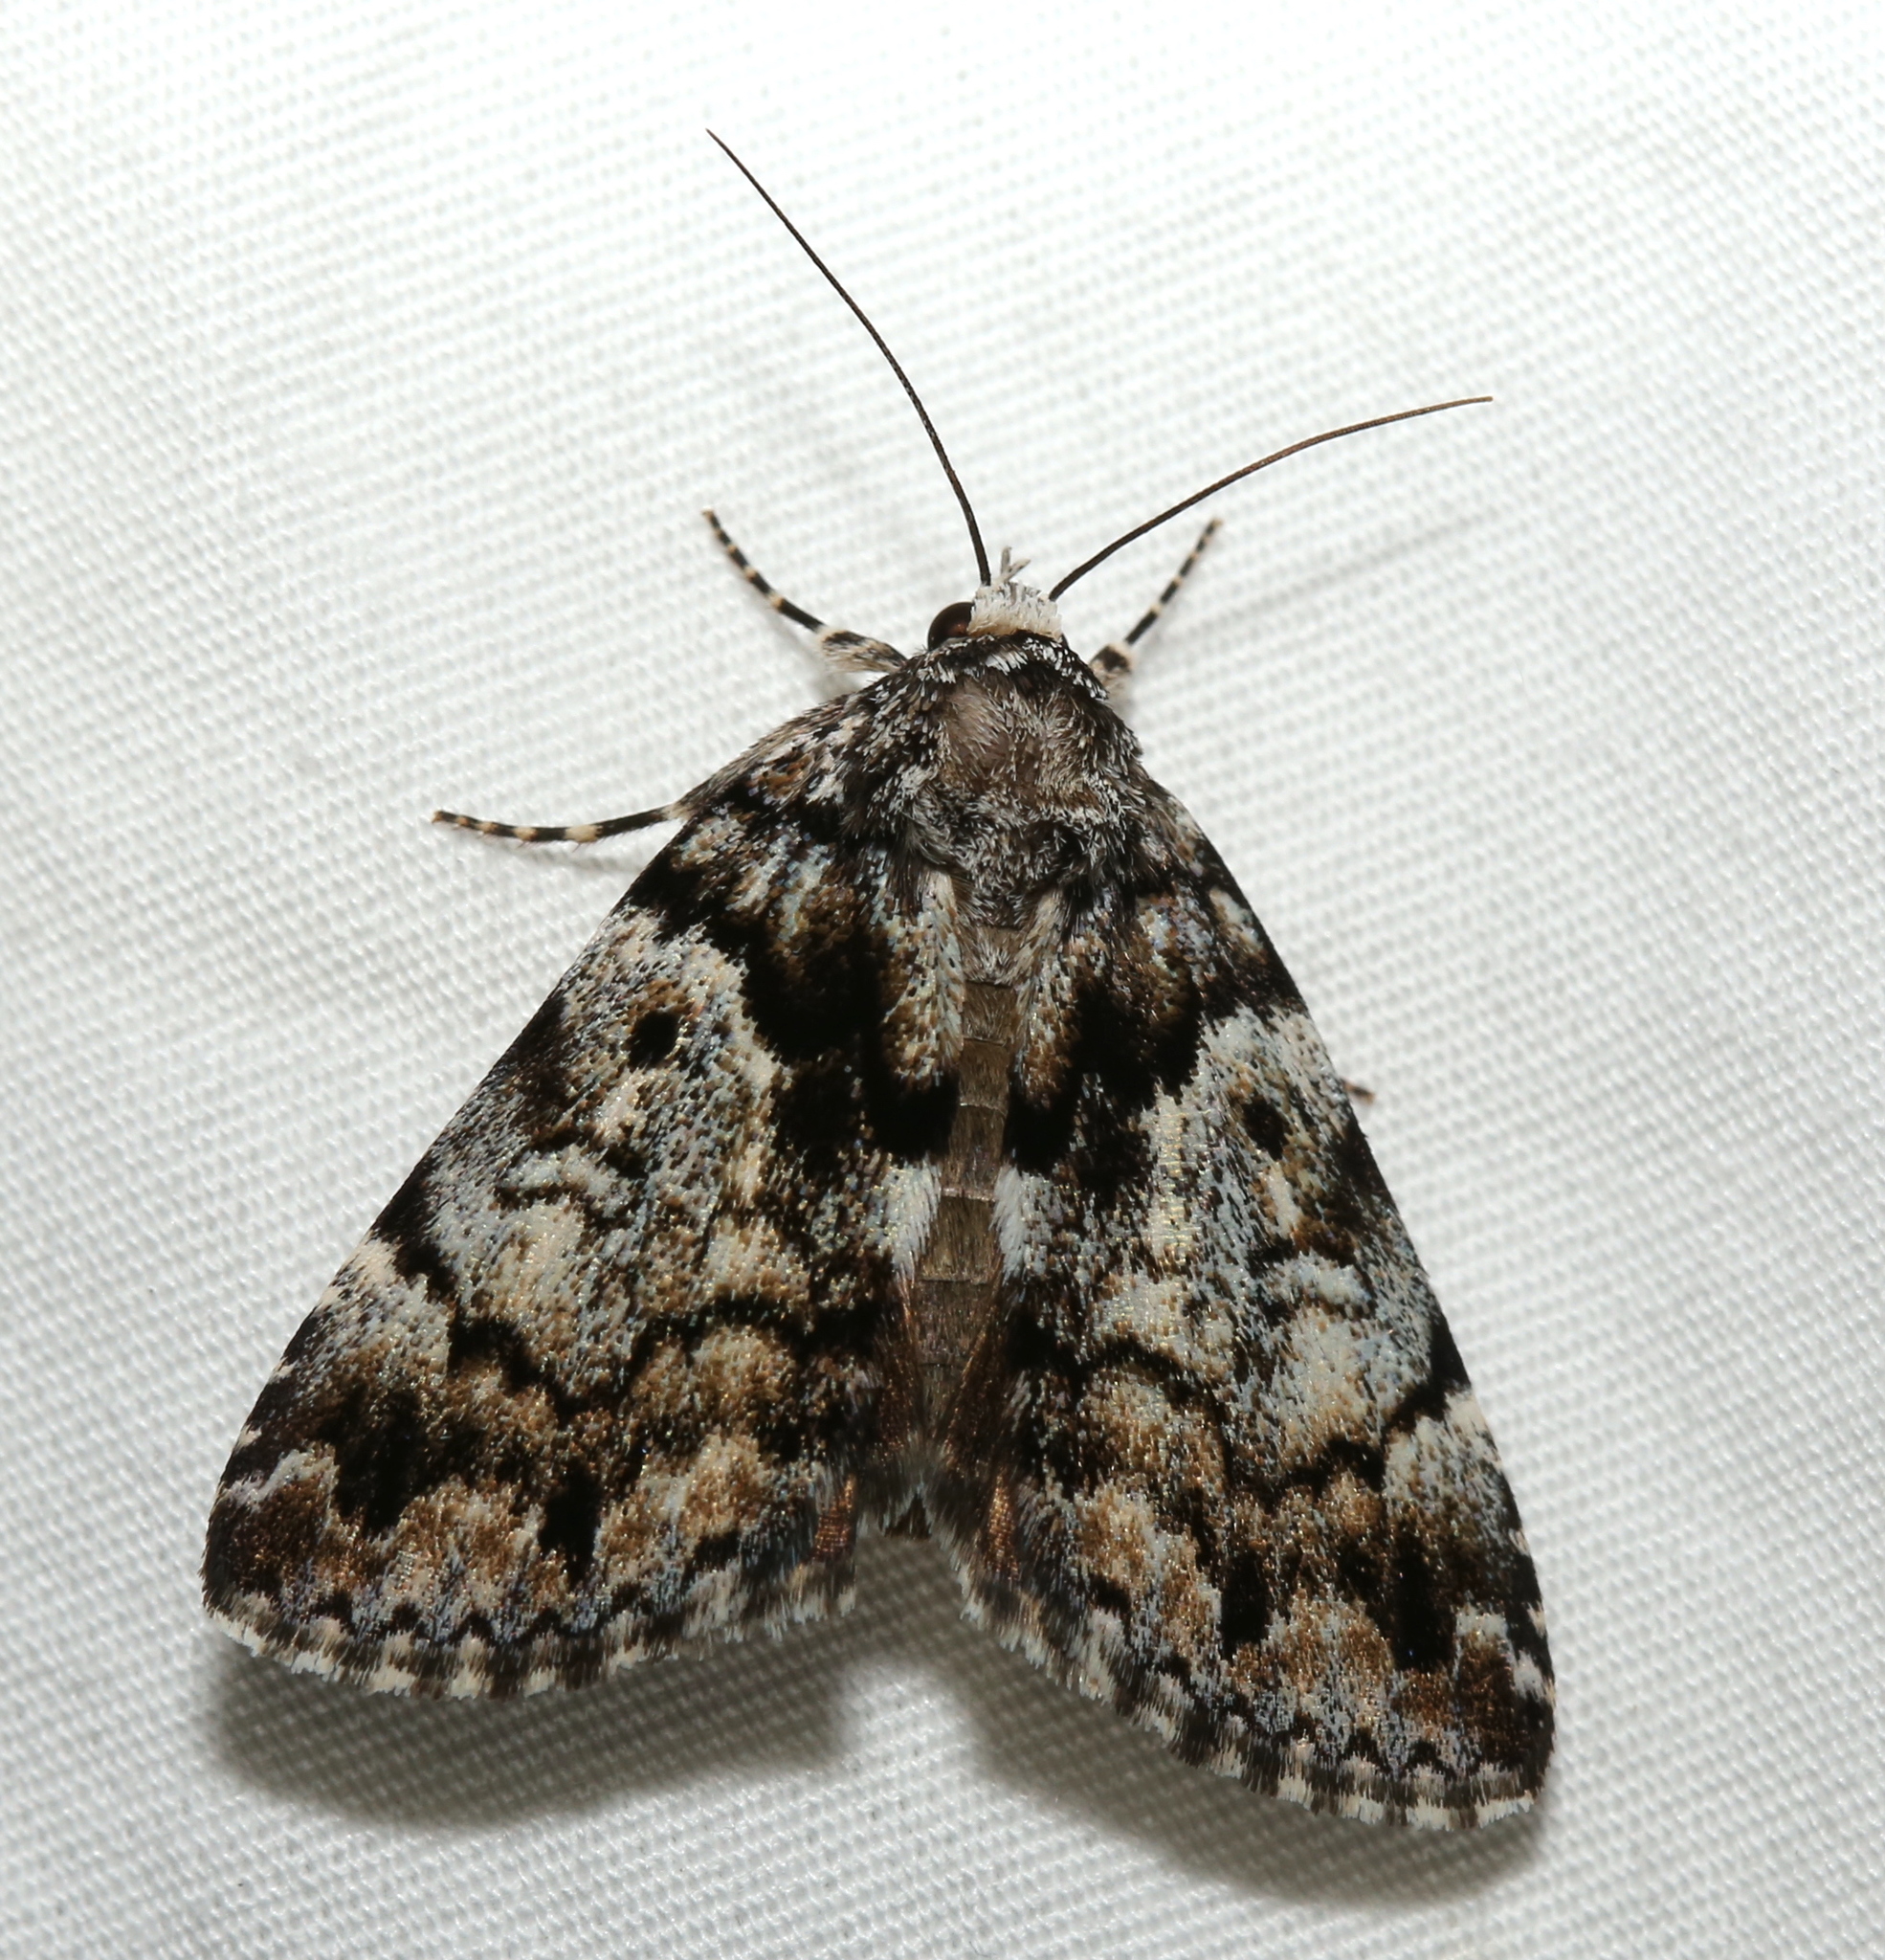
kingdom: Animalia
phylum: Arthropoda
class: Insecta
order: Lepidoptera
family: Erebidae
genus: Allotria
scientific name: Allotria elonympha
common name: False underwing
